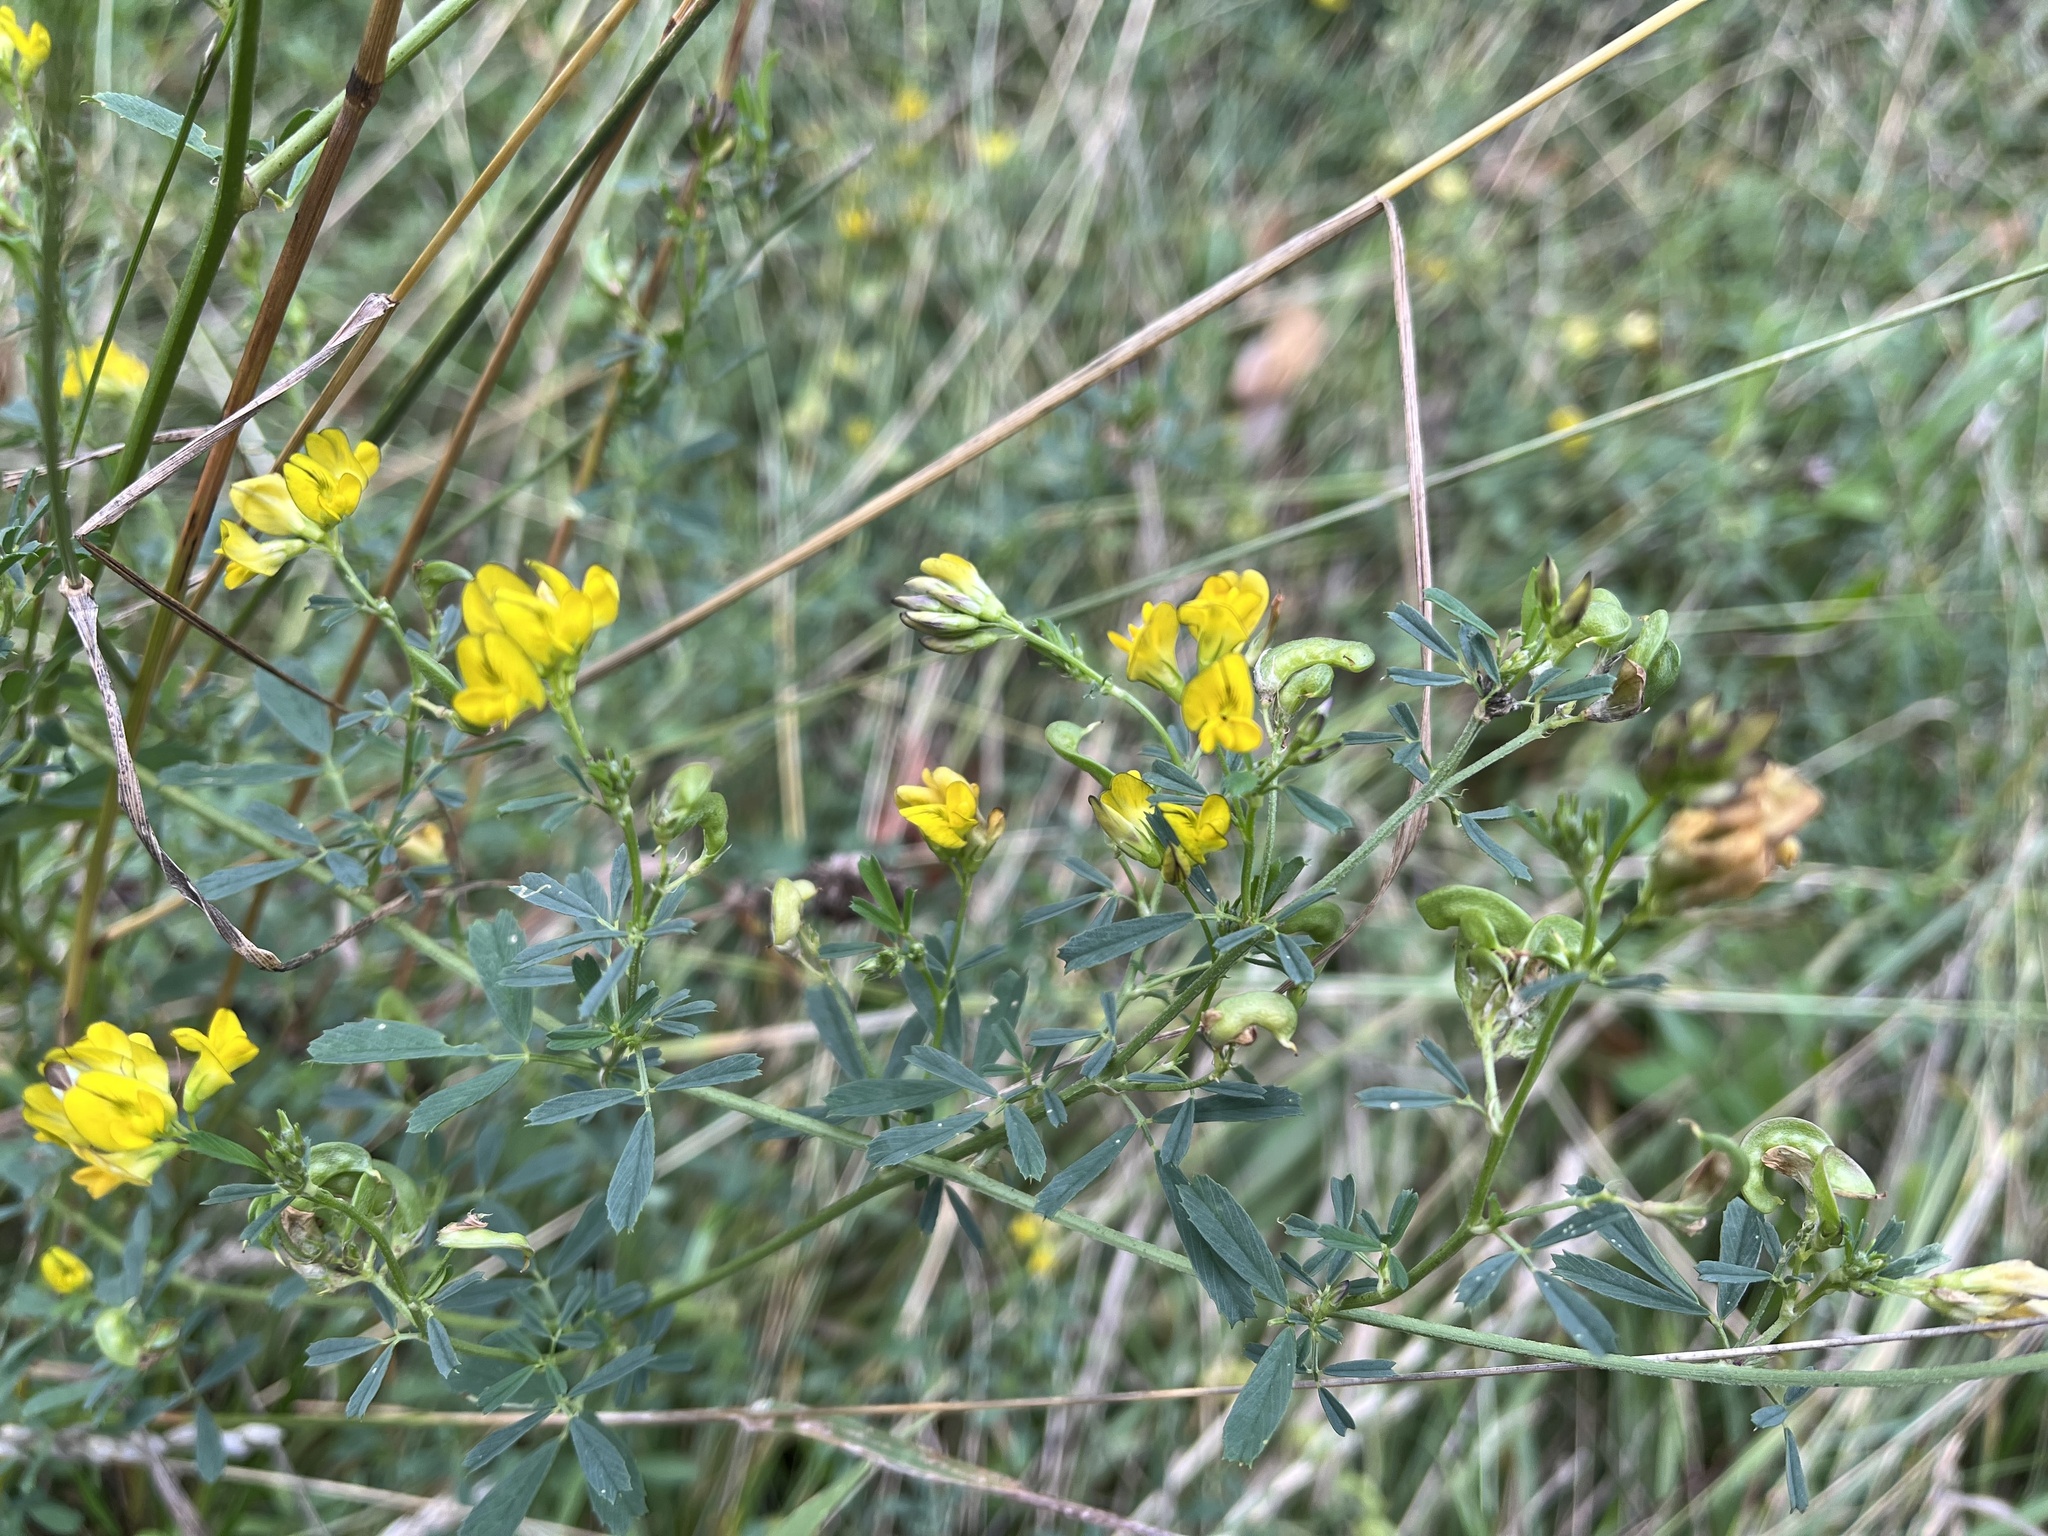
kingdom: Plantae
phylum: Tracheophyta
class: Magnoliopsida
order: Fabales
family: Fabaceae
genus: Medicago
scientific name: Medicago varia
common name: Sand lucerne
